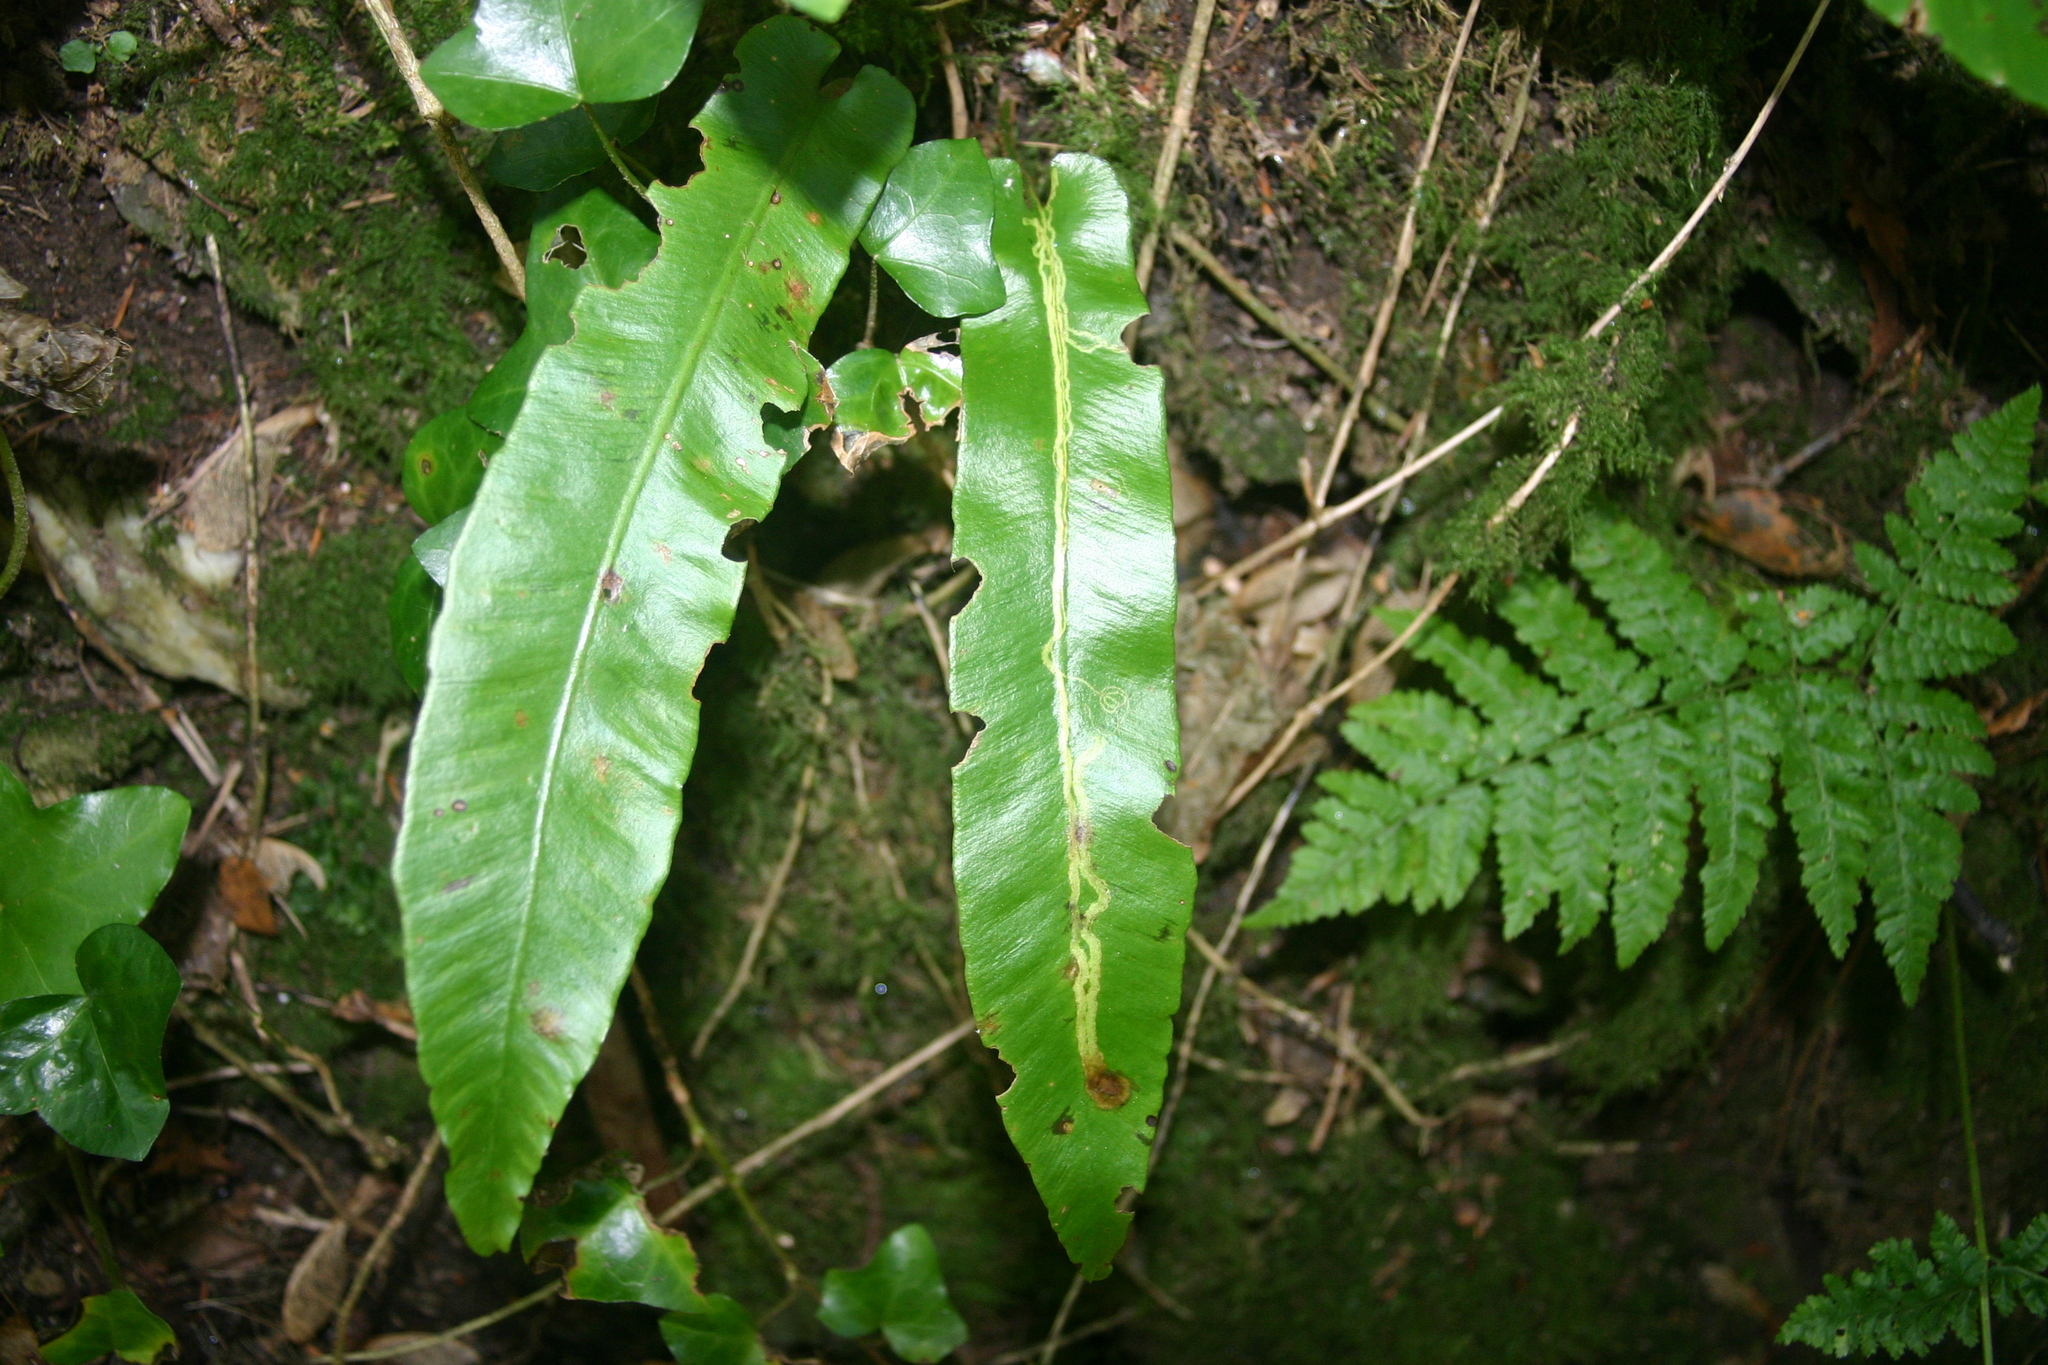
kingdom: Animalia
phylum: Arthropoda
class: Insecta
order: Diptera
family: Agromyzidae
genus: Phytomyza
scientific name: Phytomyza scolopendri
